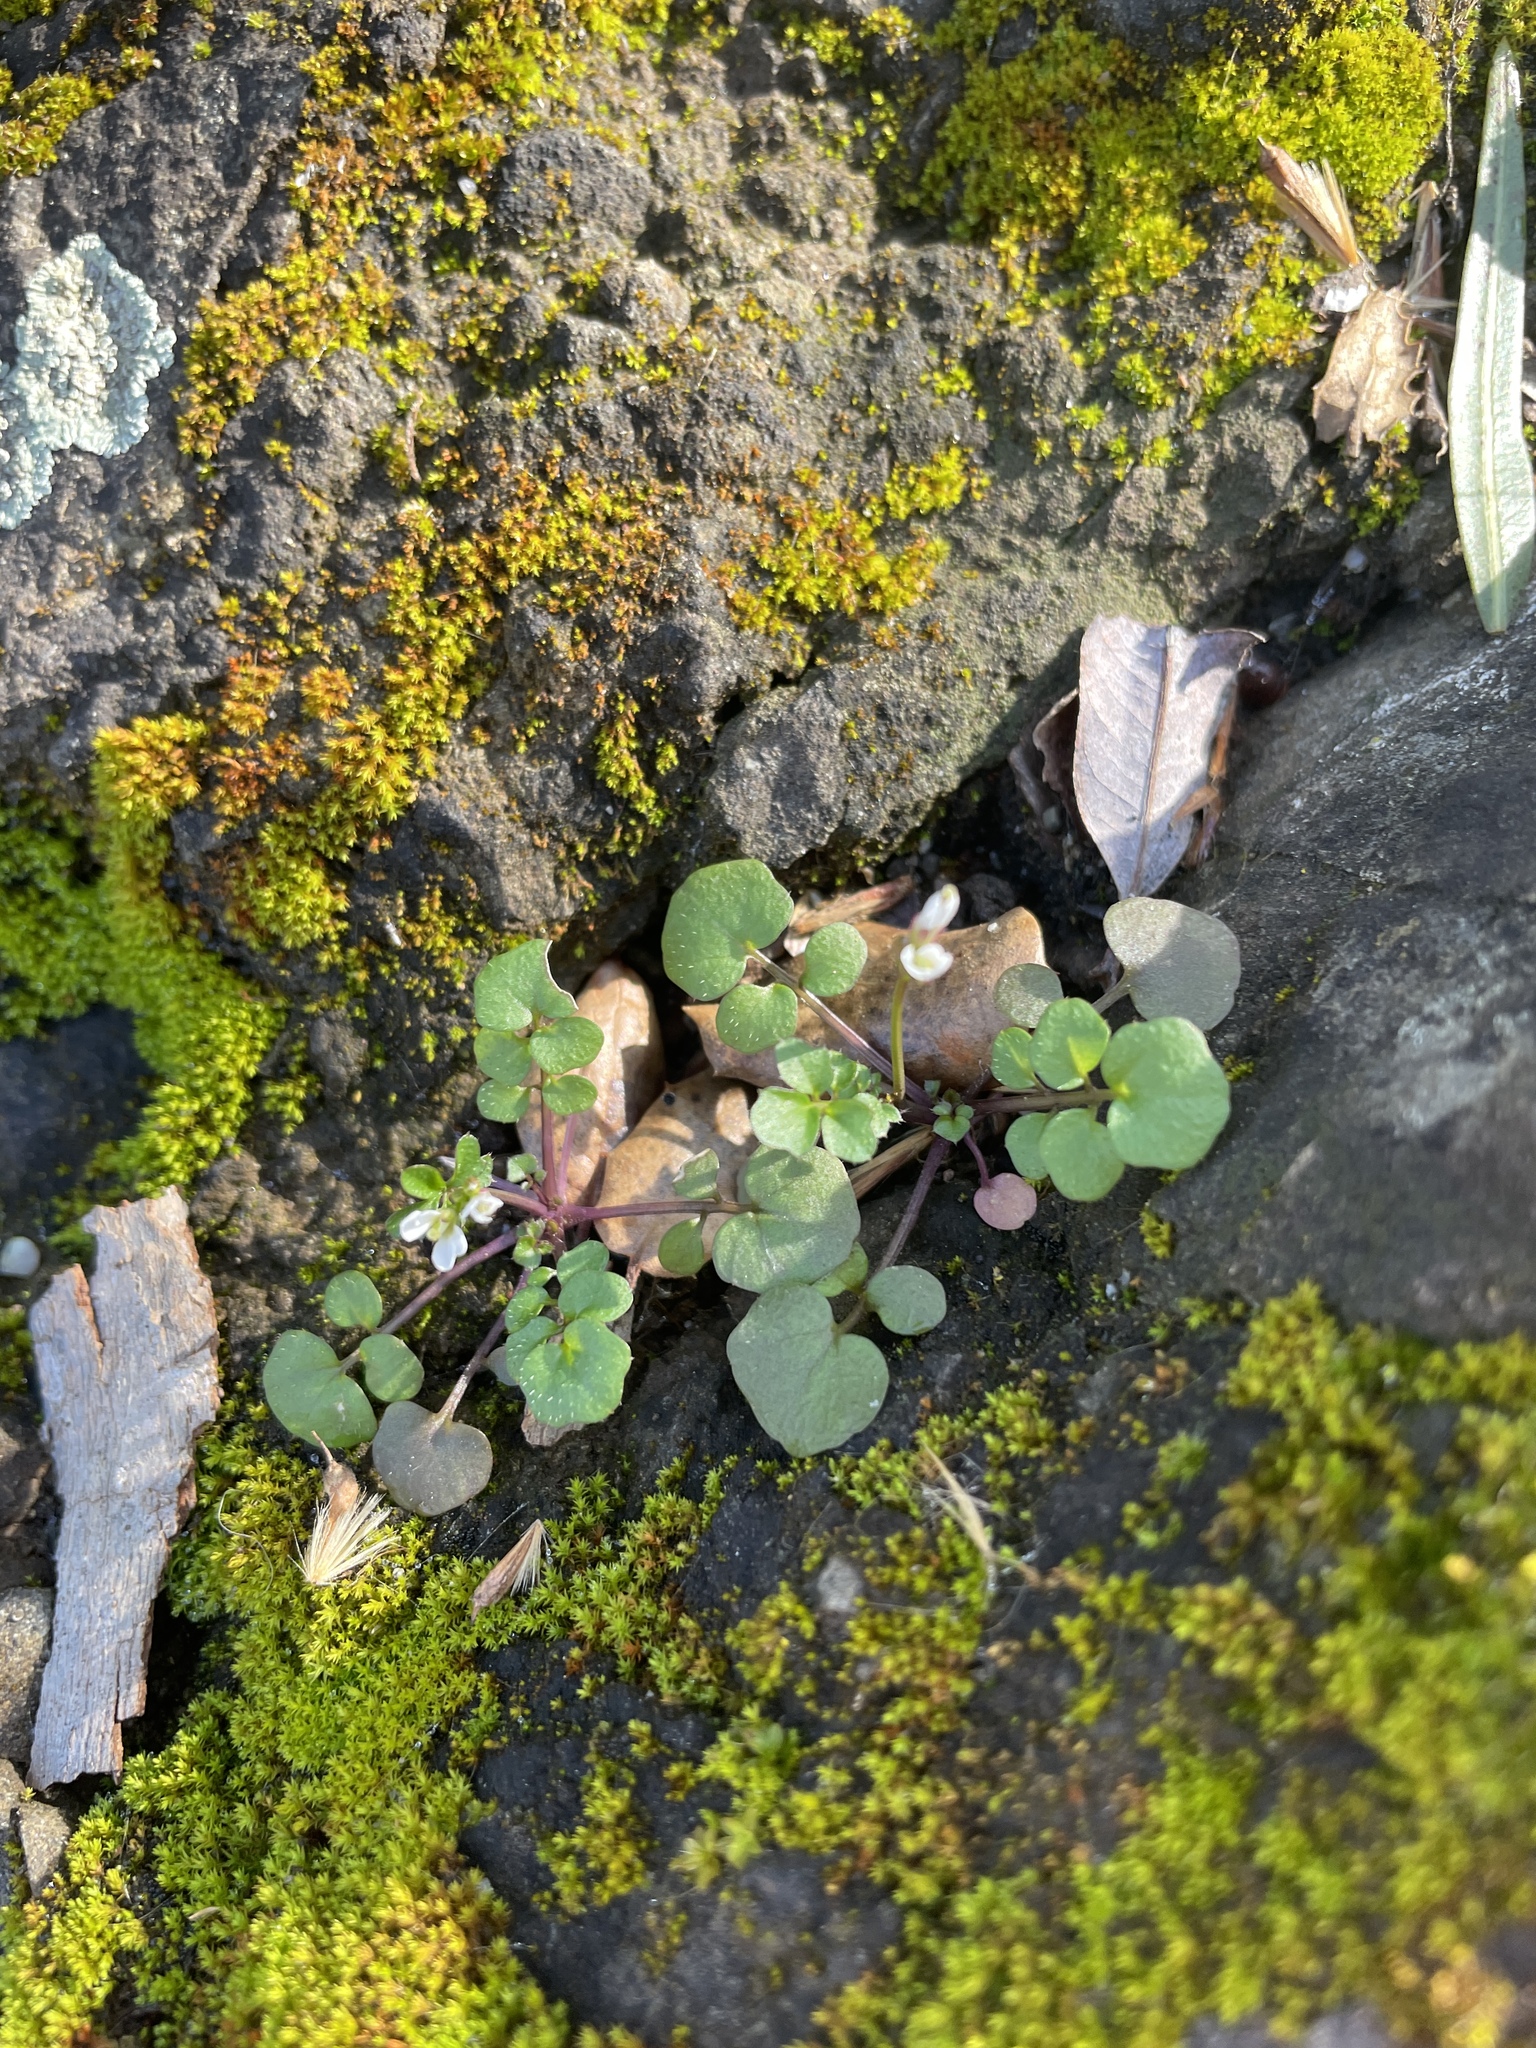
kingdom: Plantae
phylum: Tracheophyta
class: Magnoliopsida
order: Brassicales
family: Brassicaceae
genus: Cardamine
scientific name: Cardamine hirsuta
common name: Hairy bittercress
